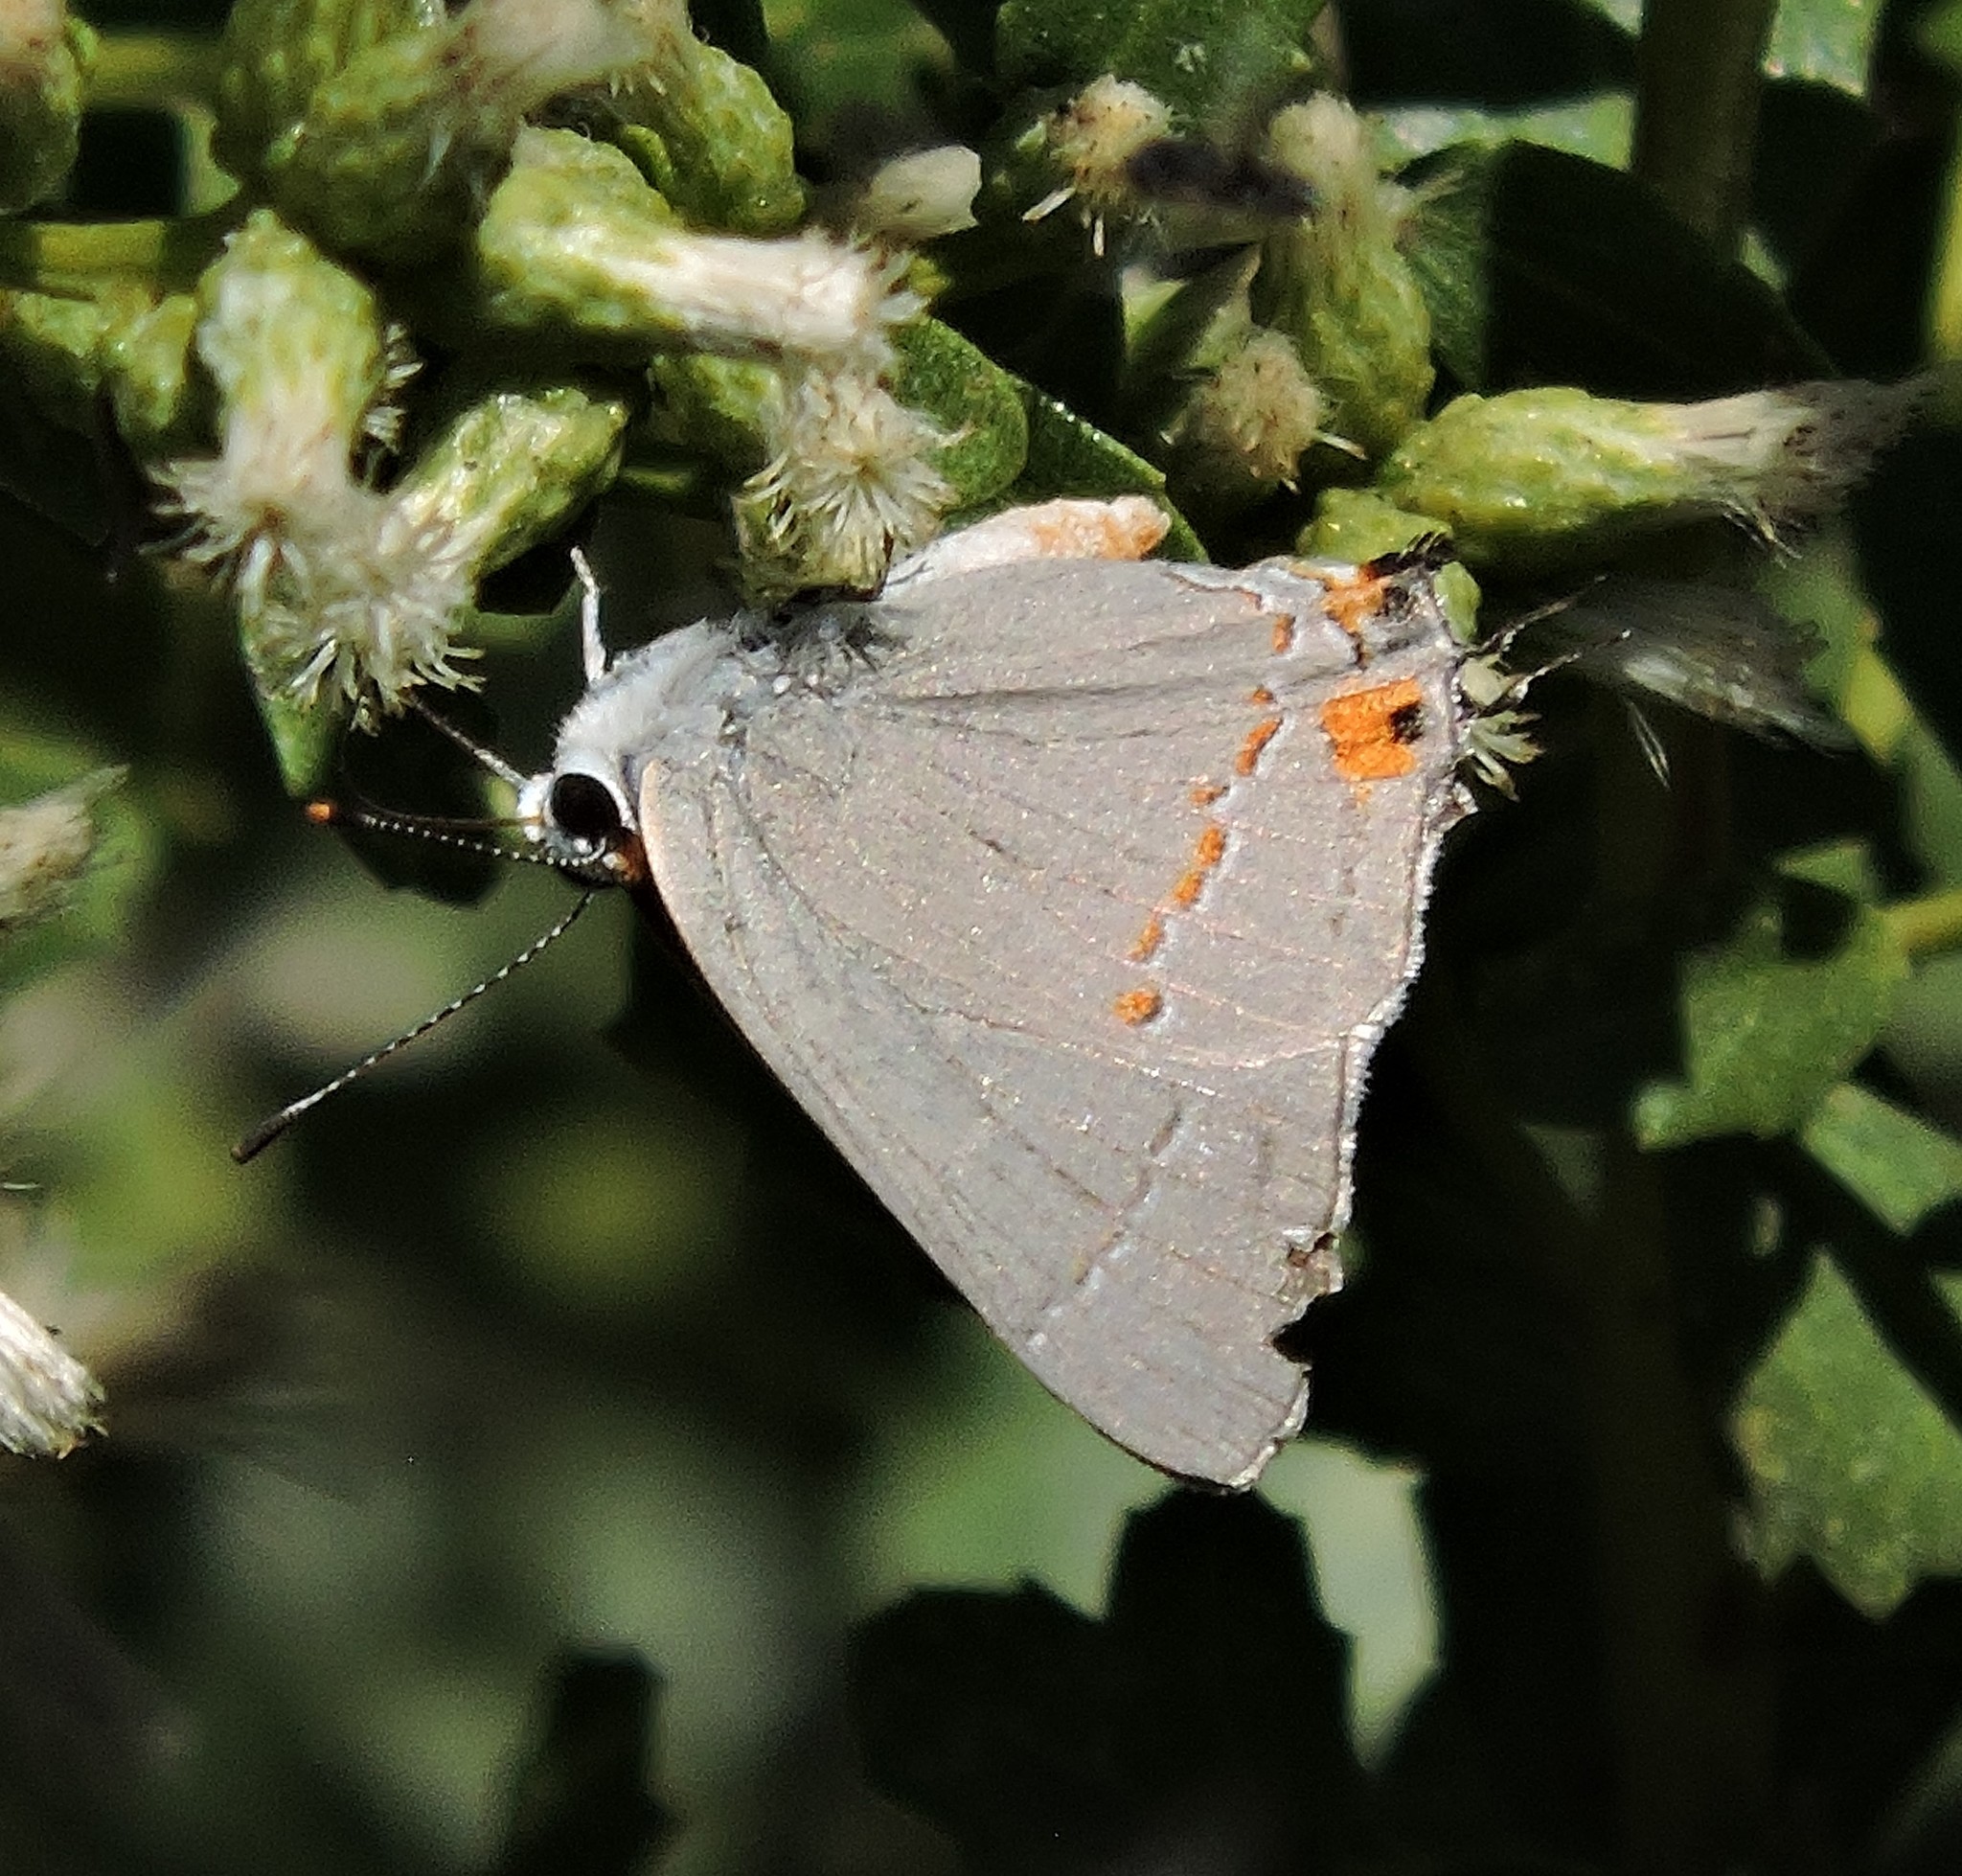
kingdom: Animalia
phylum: Arthropoda
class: Insecta
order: Lepidoptera
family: Lycaenidae
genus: Strymon
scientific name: Strymon melinus
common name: Gray hairstreak
